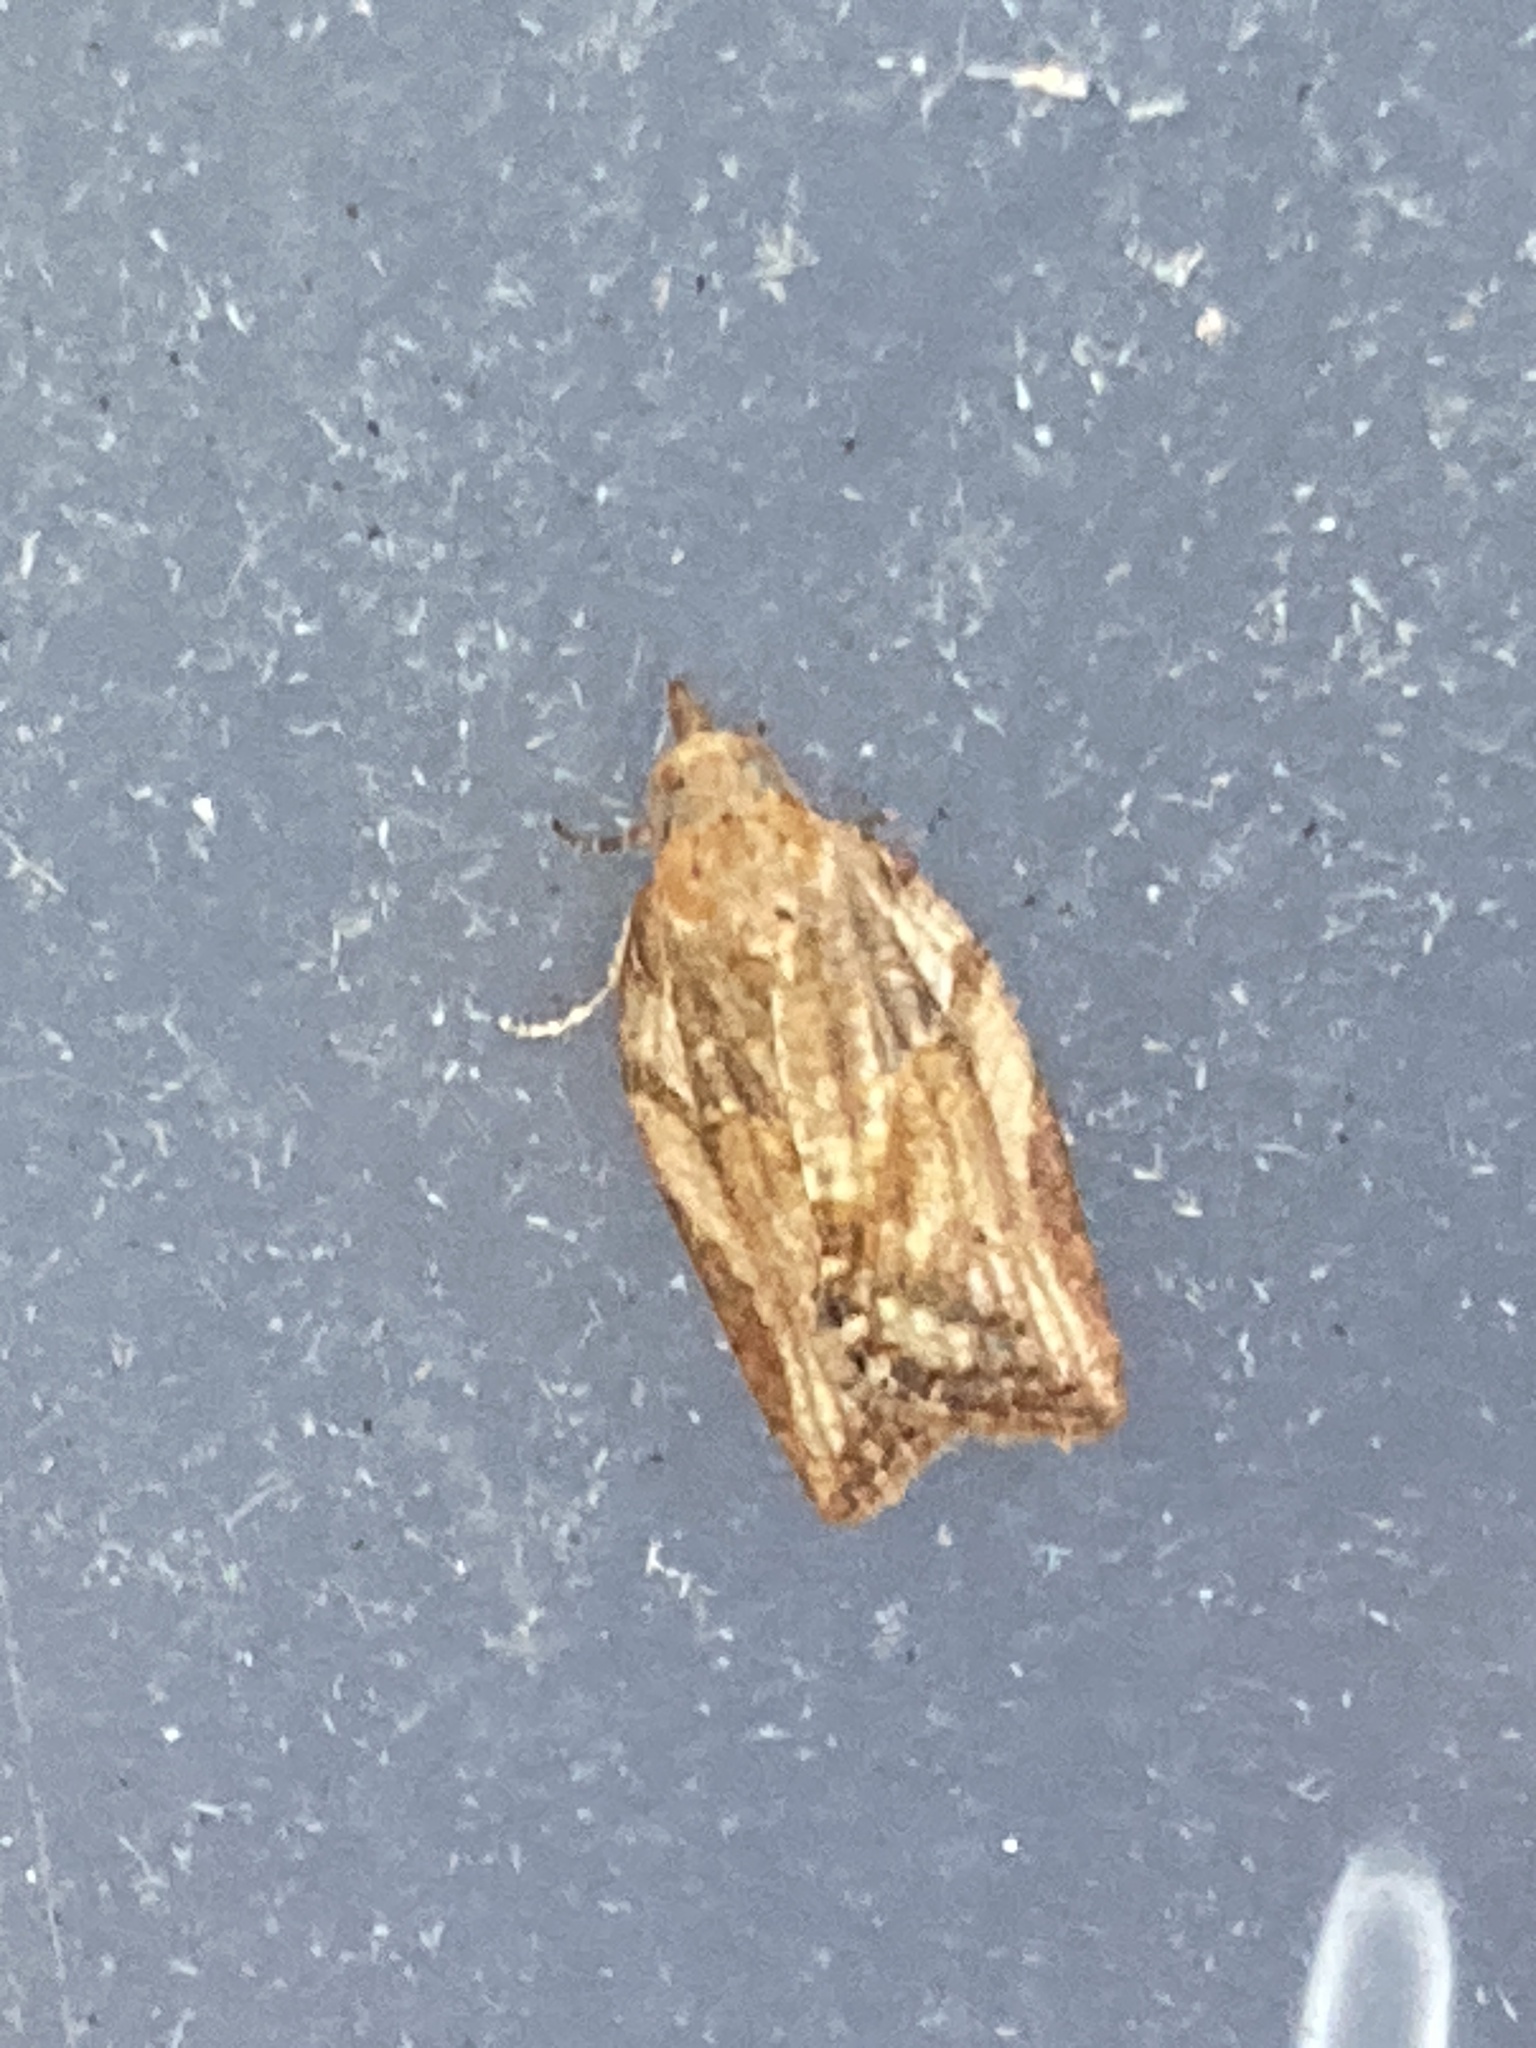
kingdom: Animalia
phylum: Arthropoda
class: Insecta
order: Lepidoptera
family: Tortricidae
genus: Epiphyas
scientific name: Epiphyas postvittana
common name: Light brown apple moth
